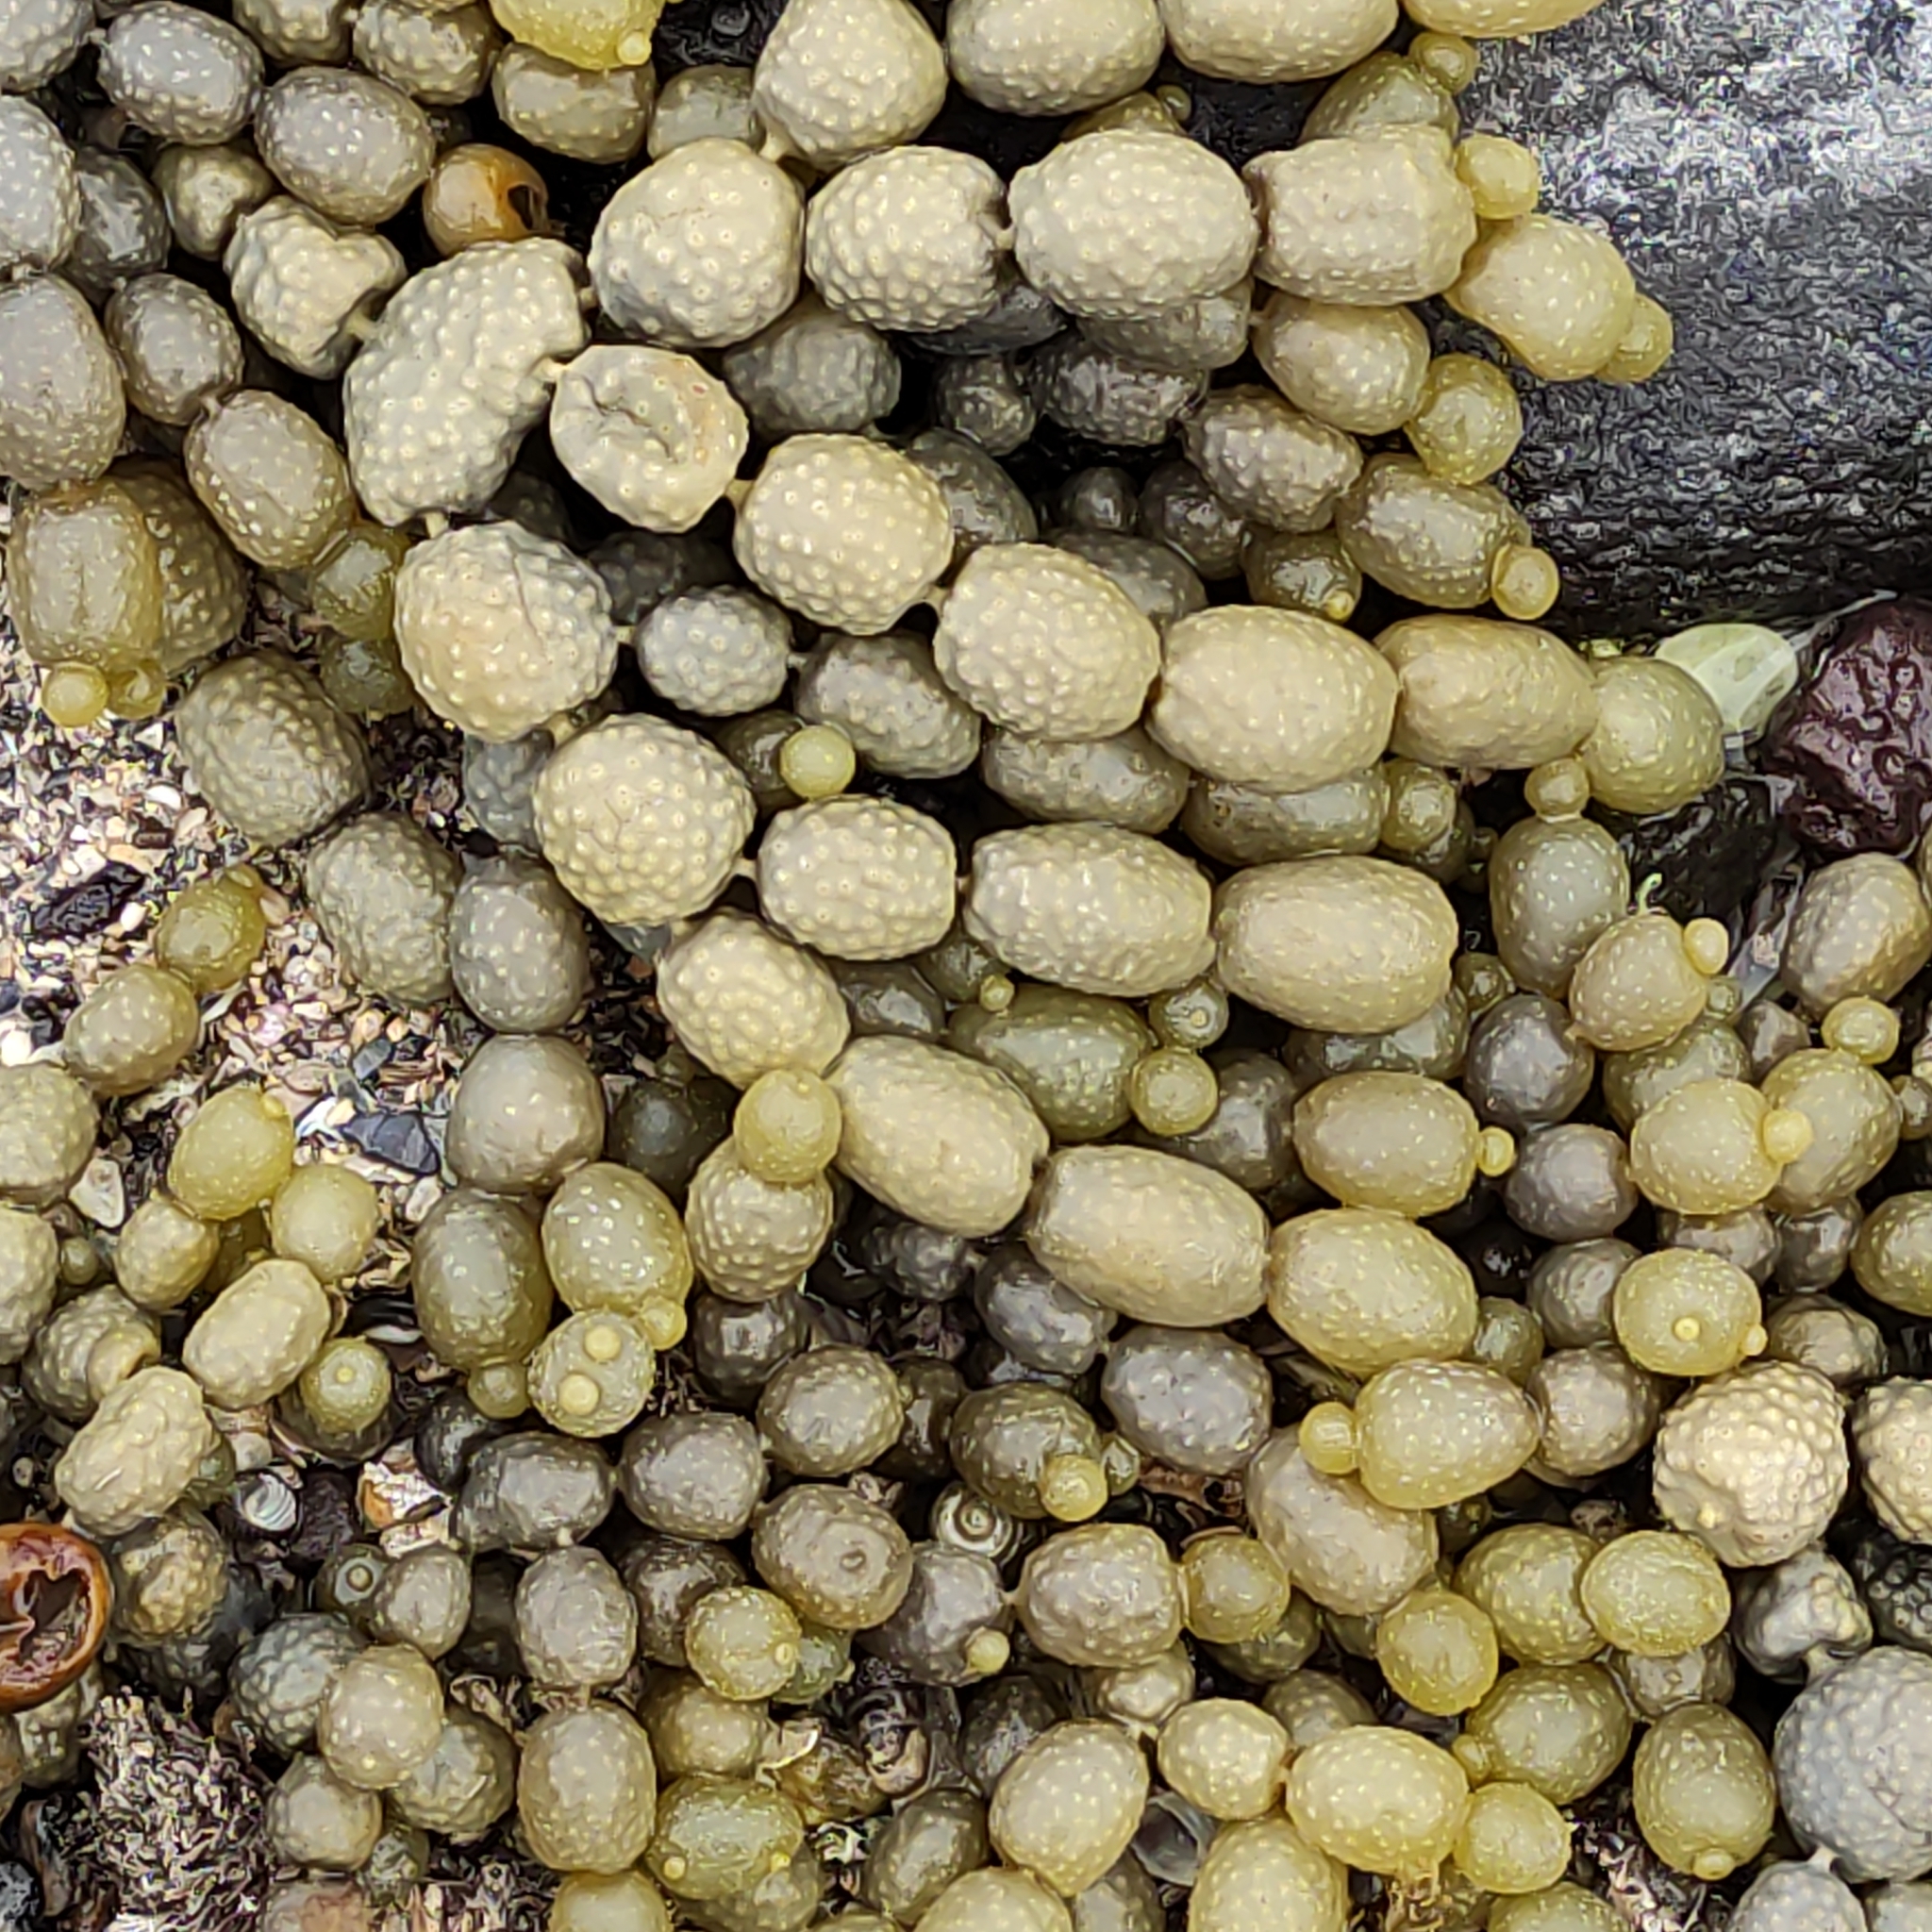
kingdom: Chromista
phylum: Ochrophyta
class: Phaeophyceae
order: Fucales
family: Hormosiraceae
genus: Hormosira
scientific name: Hormosira banksii
